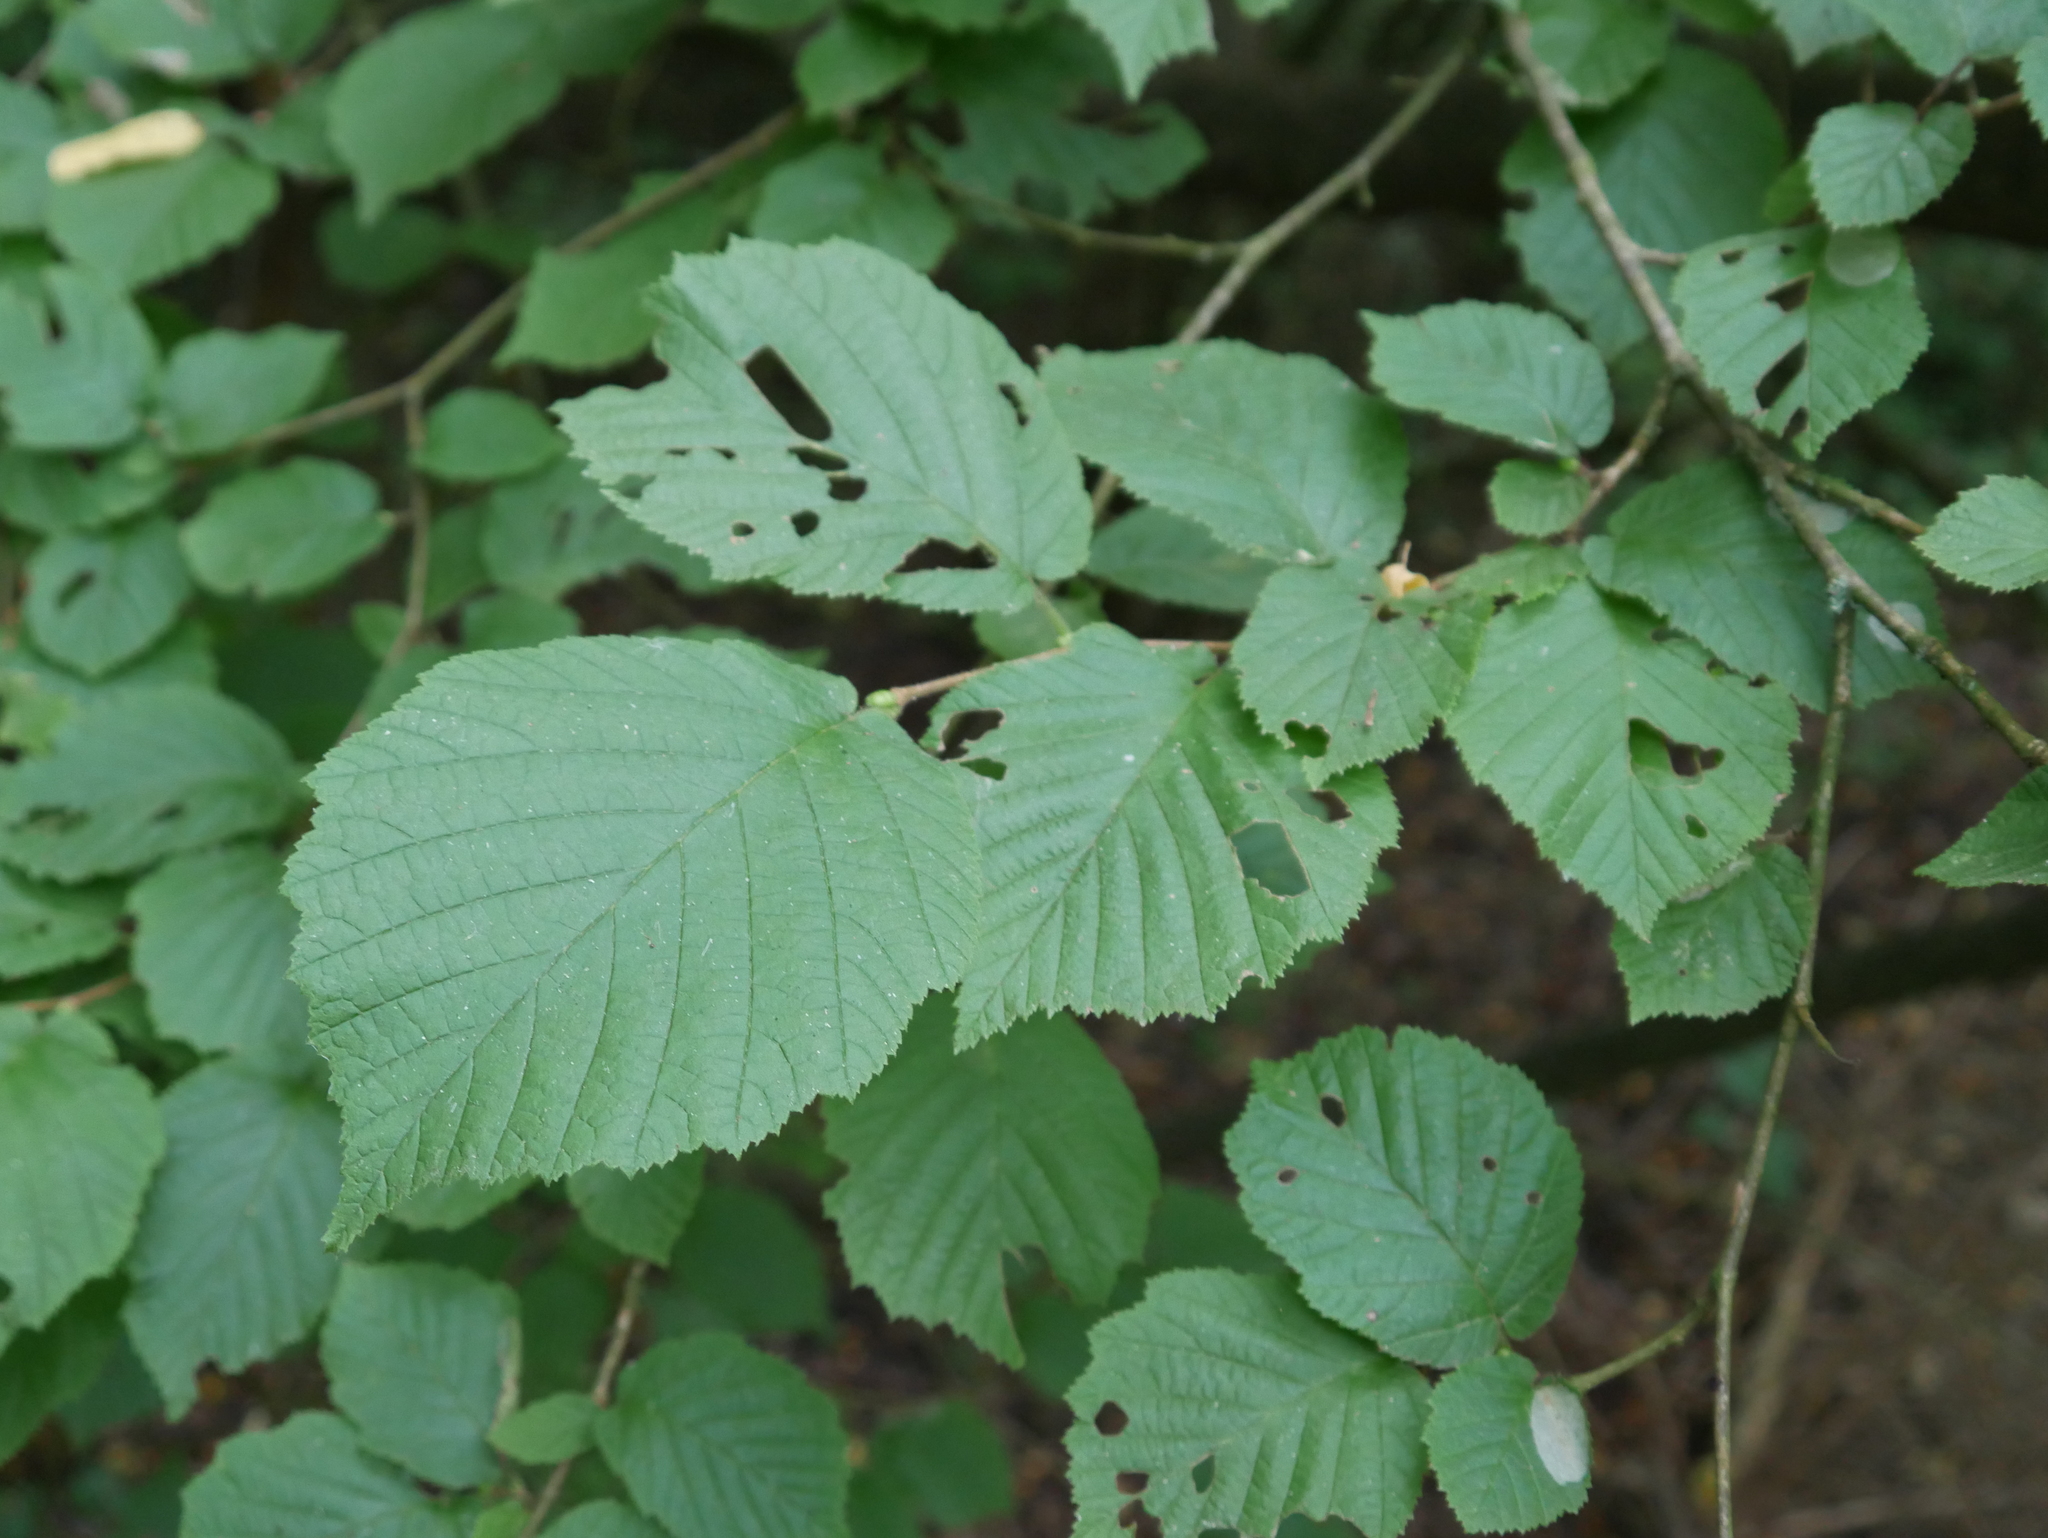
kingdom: Plantae
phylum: Tracheophyta
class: Magnoliopsida
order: Fagales
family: Betulaceae
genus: Corylus
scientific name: Corylus avellana
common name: European hazel
